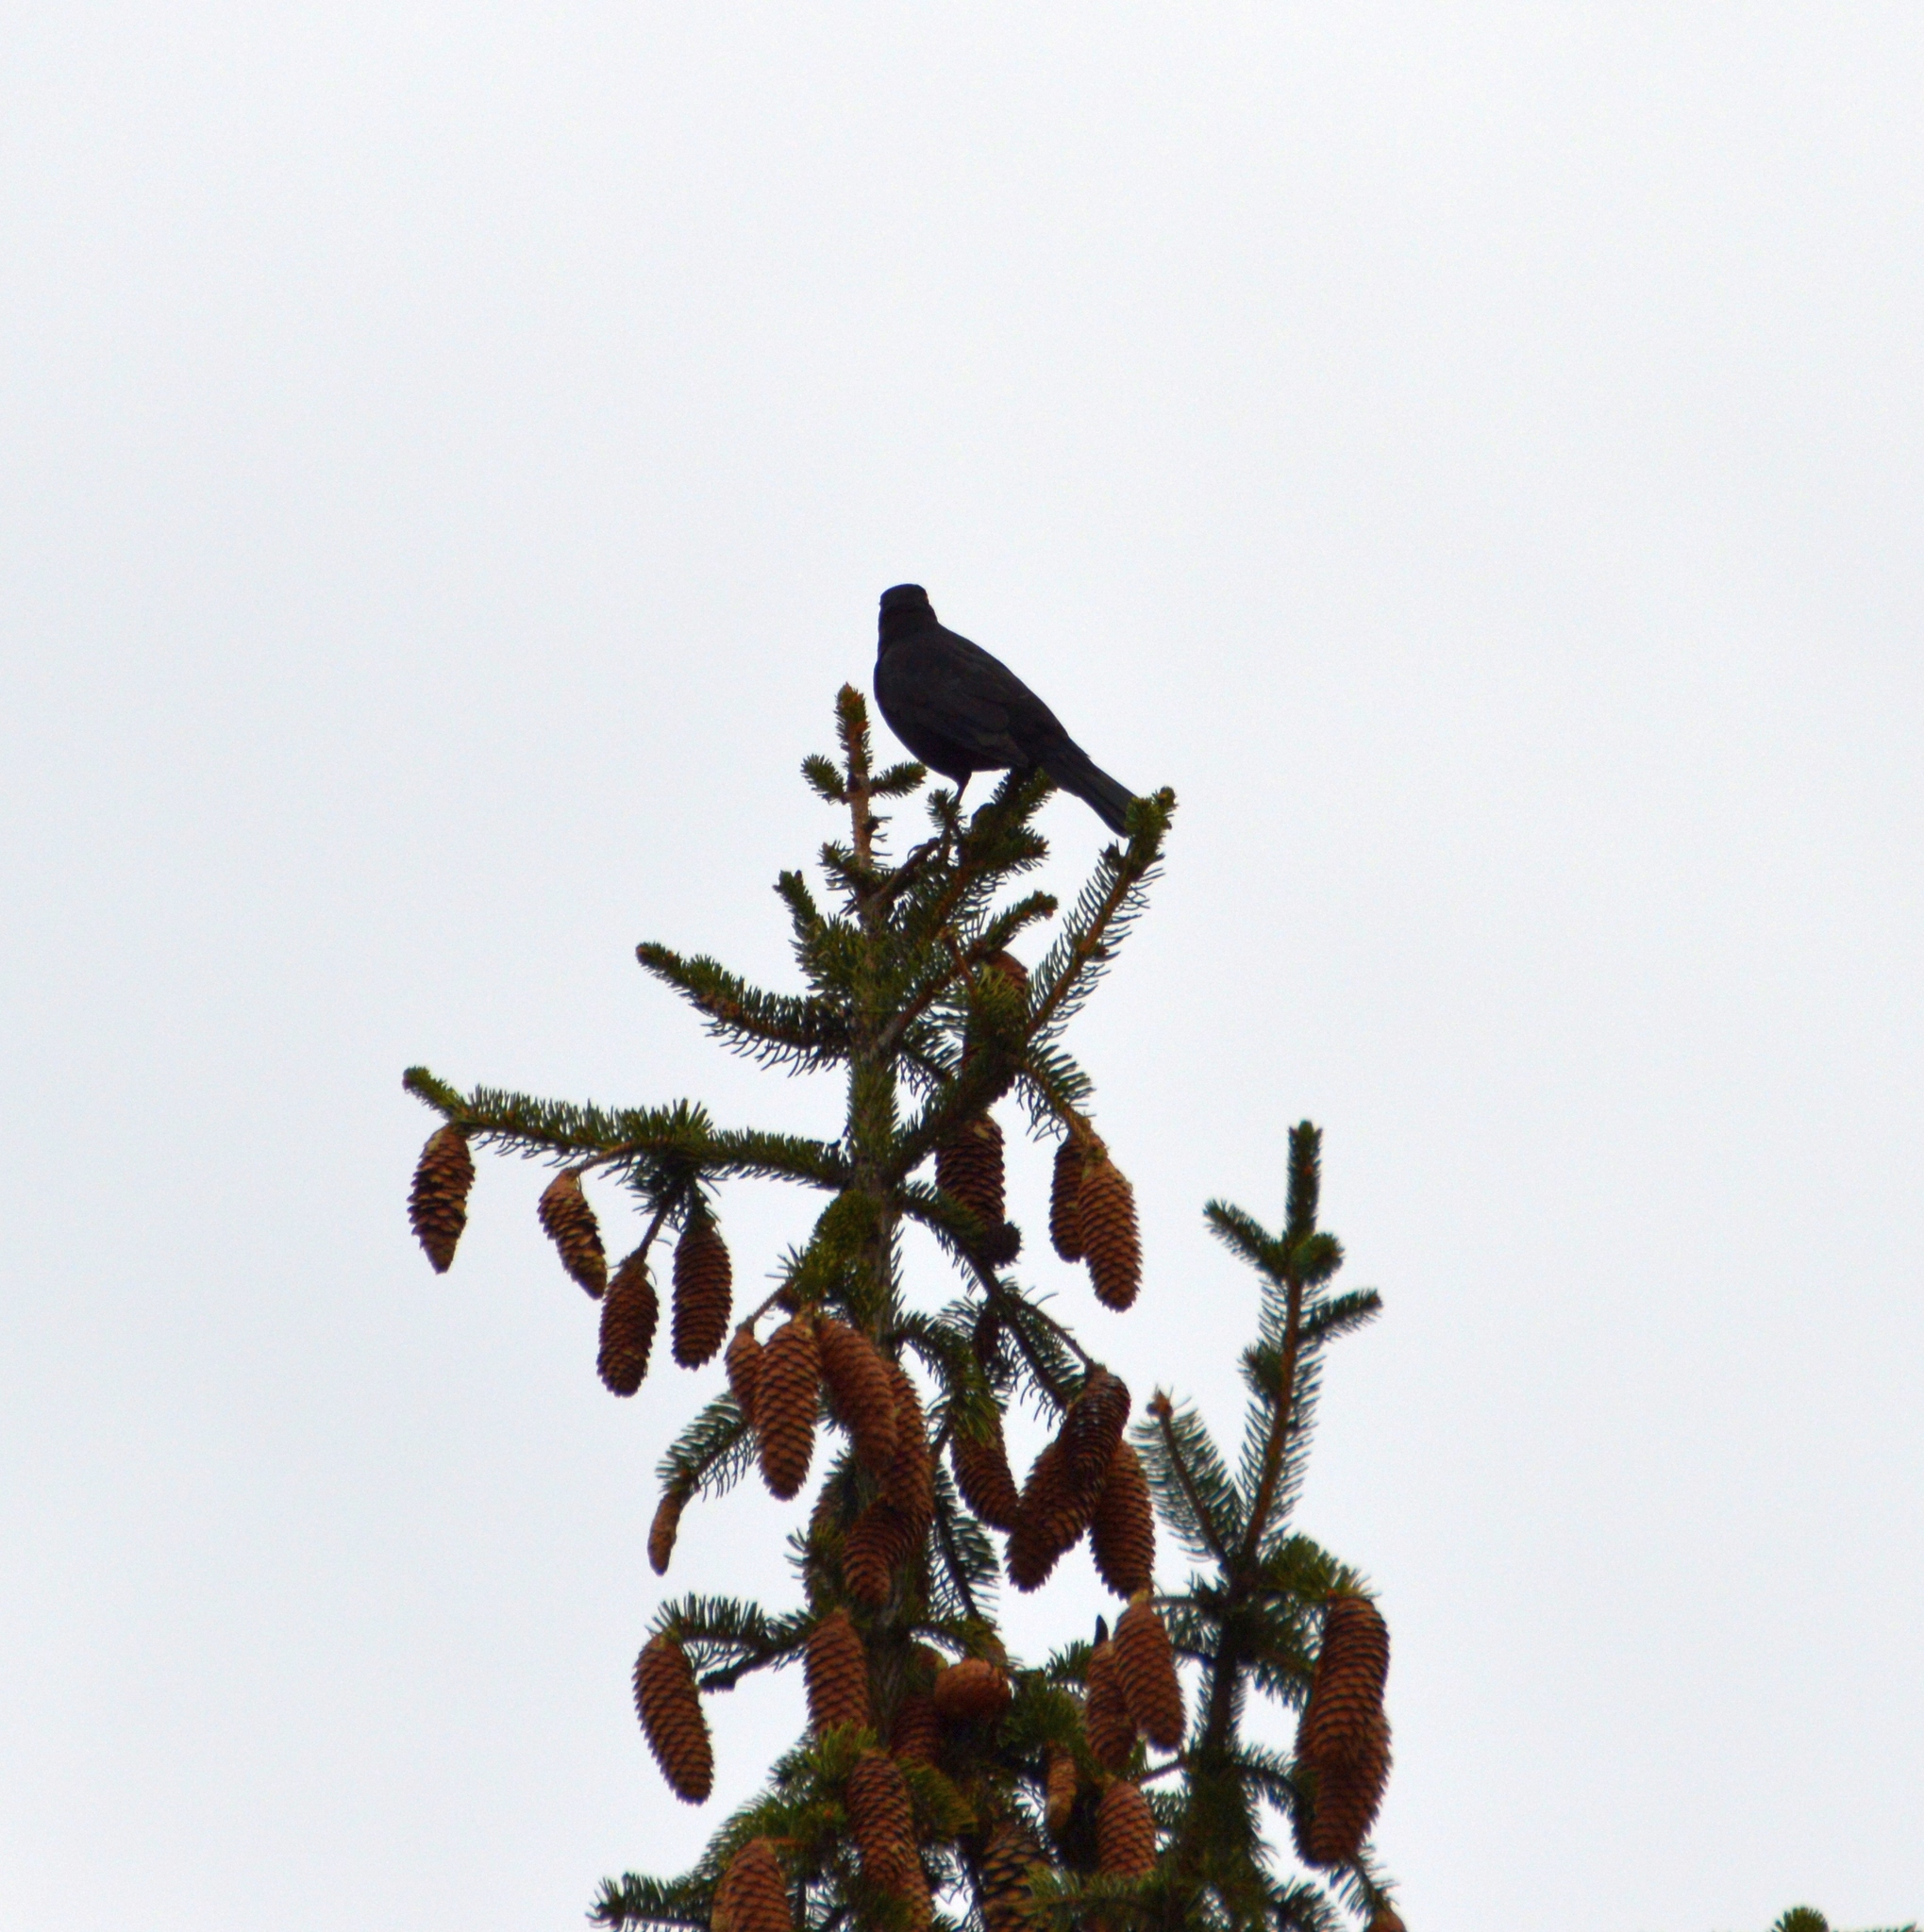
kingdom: Animalia
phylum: Chordata
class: Aves
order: Passeriformes
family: Turdidae
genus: Turdus
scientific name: Turdus merula
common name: Common blackbird
